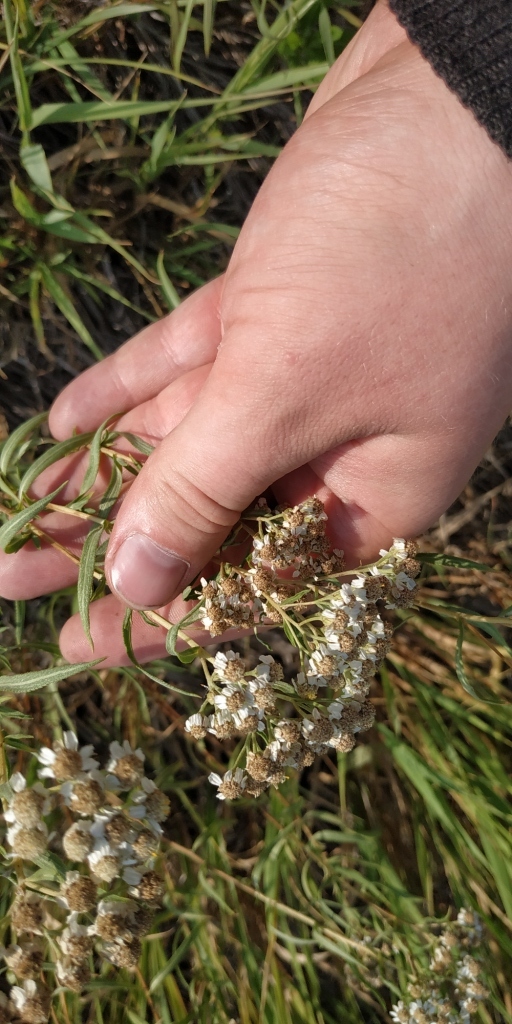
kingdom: Plantae
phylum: Tracheophyta
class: Magnoliopsida
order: Asterales
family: Asteraceae
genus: Achillea
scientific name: Achillea salicifolia
